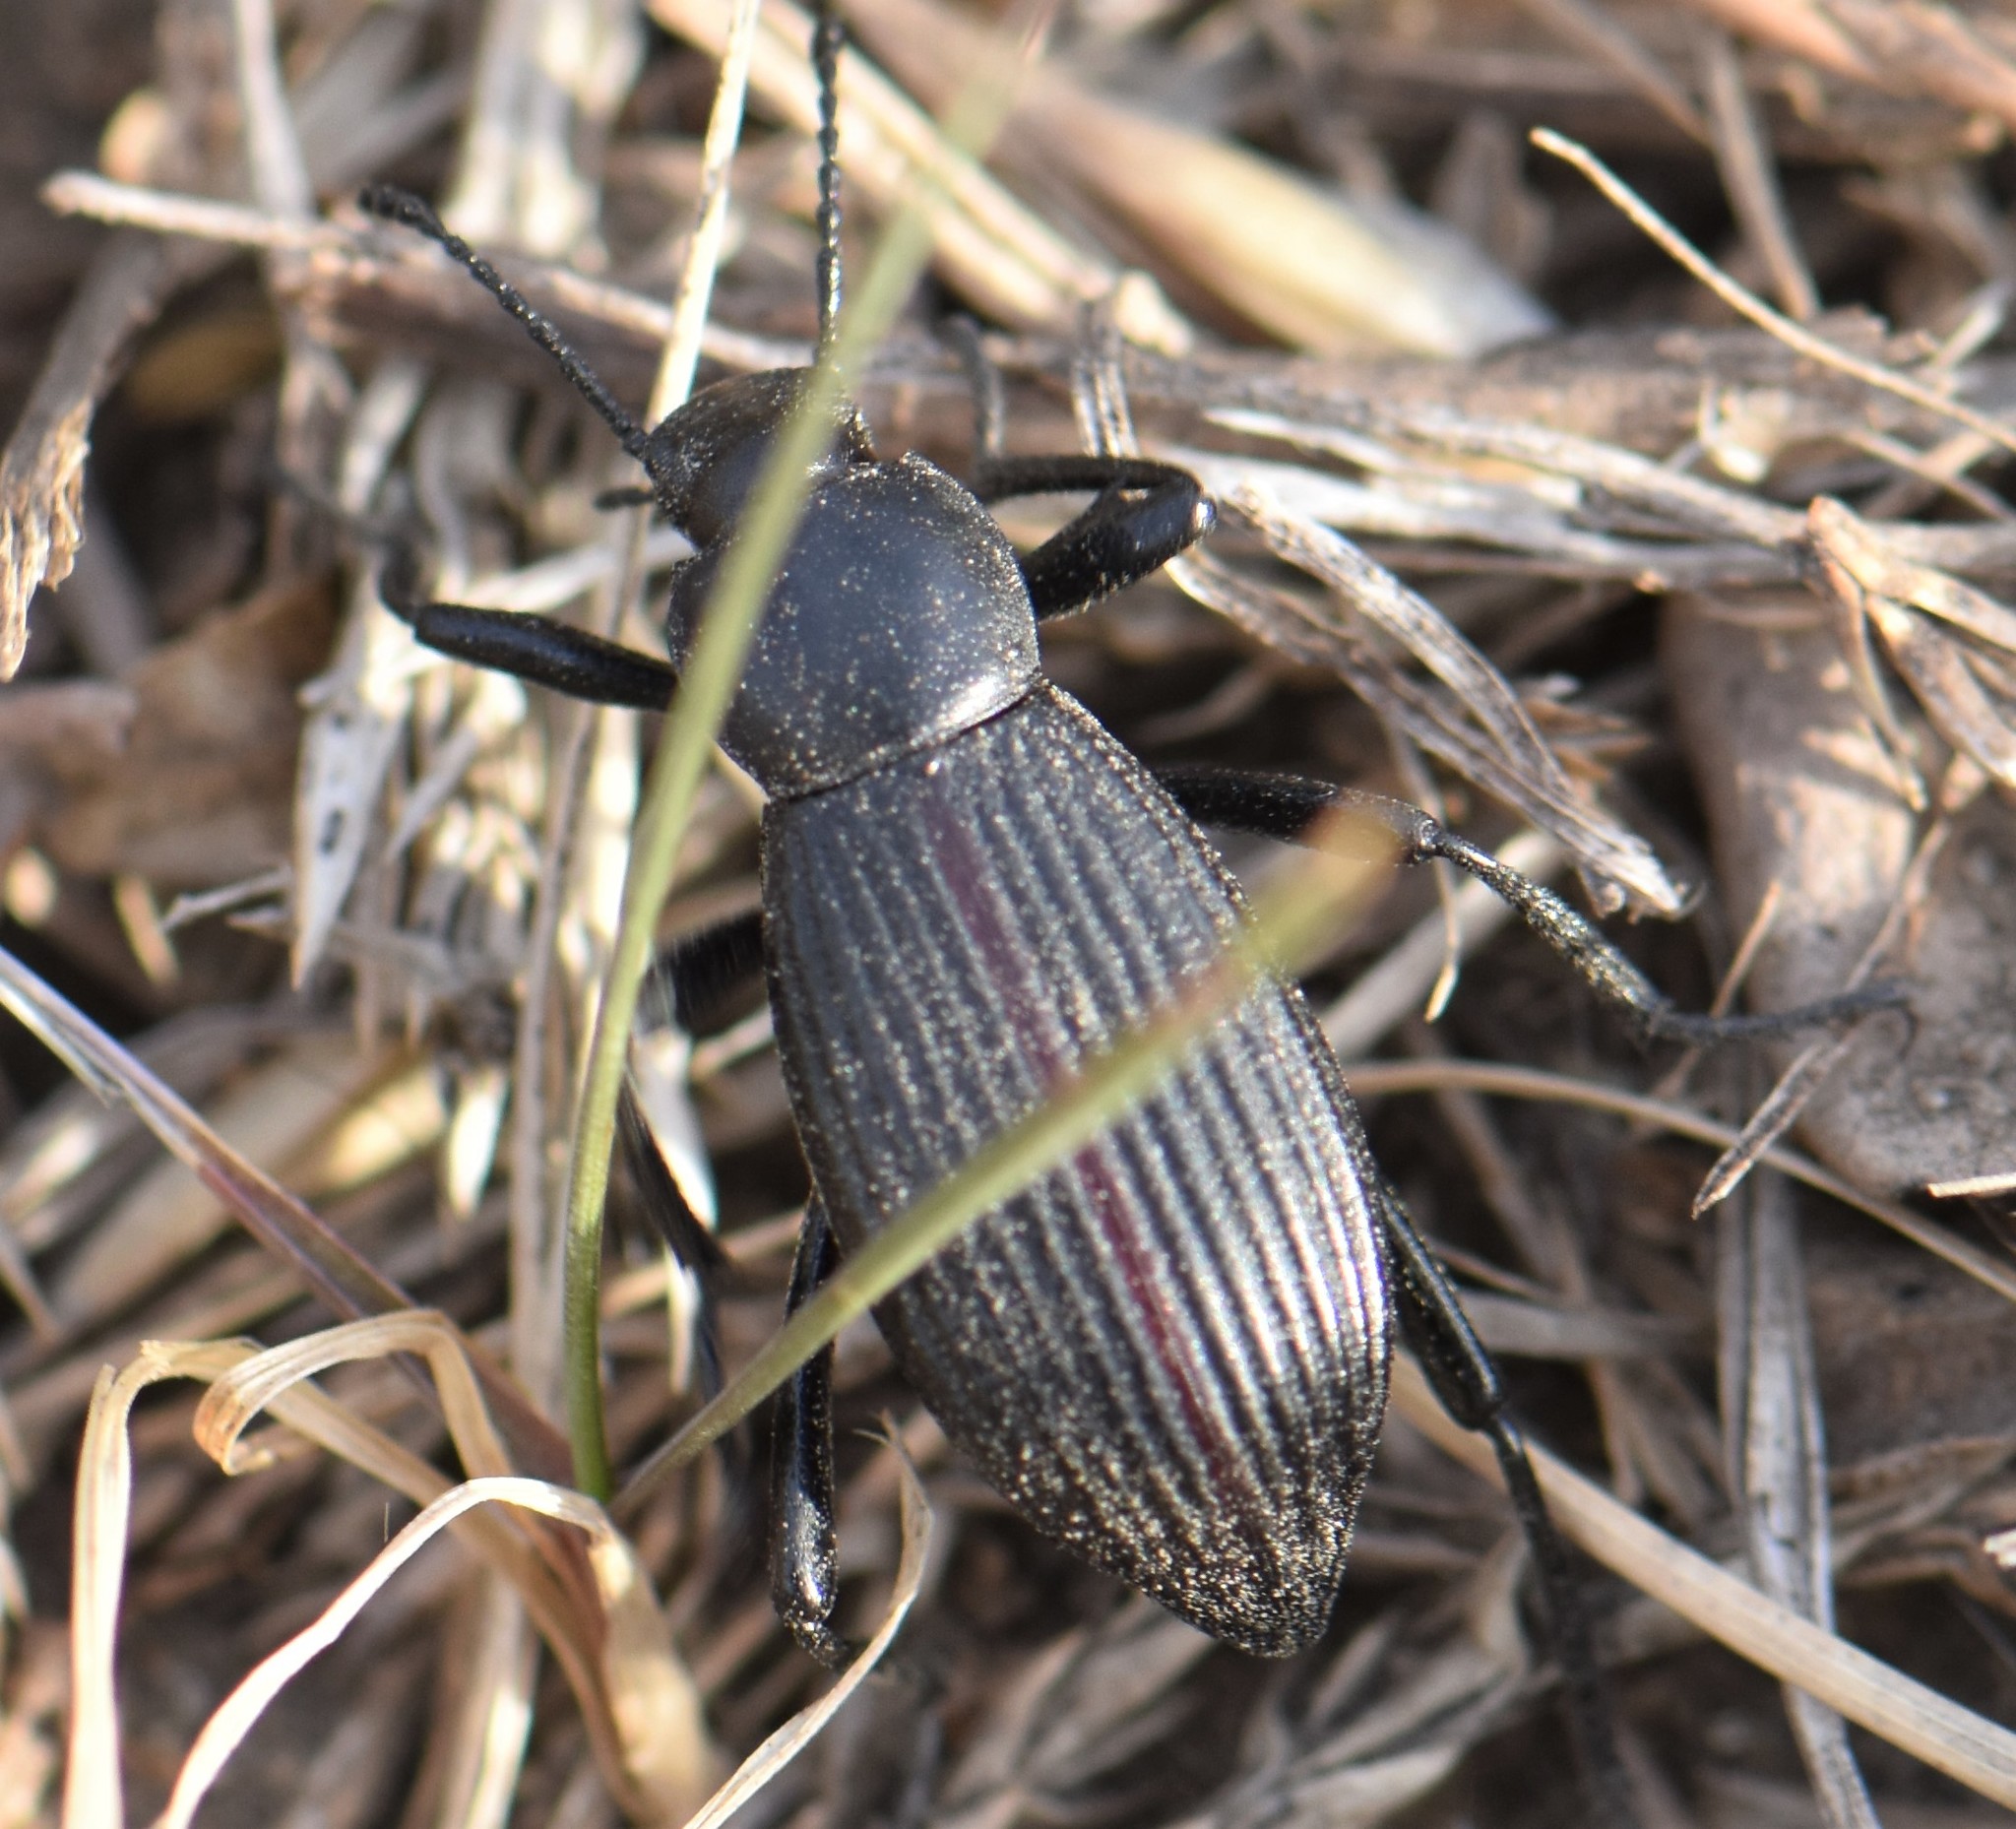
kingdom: Animalia
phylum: Arthropoda
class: Insecta
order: Coleoptera
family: Tenebrionidae
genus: Eleodes
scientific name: Eleodes hispilabris
